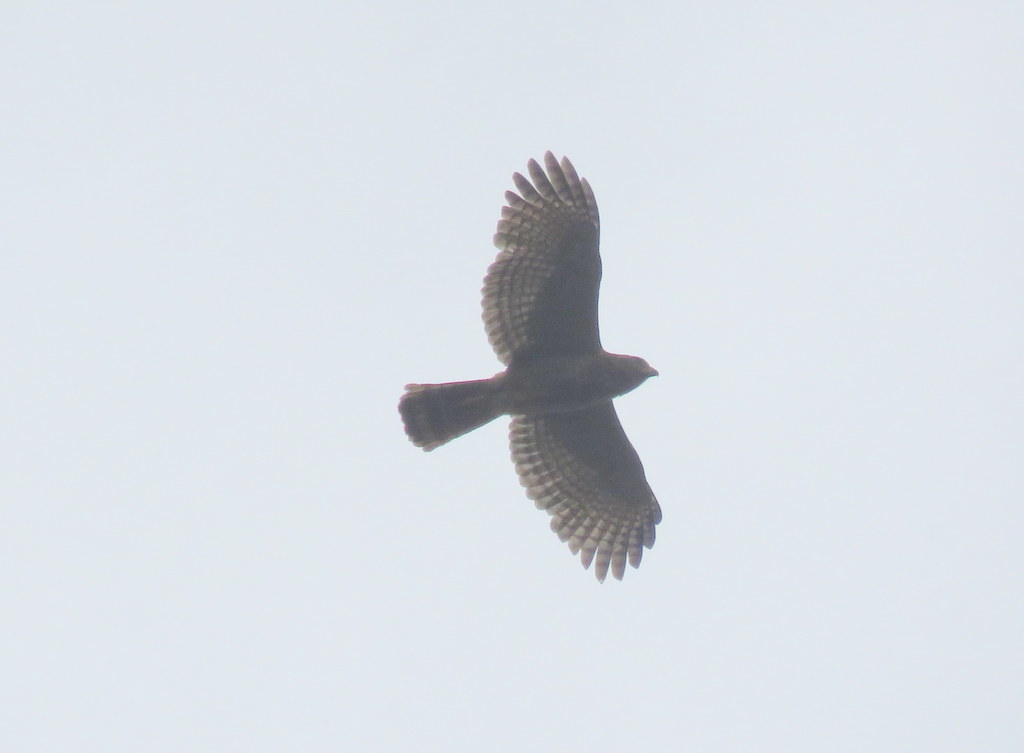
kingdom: Animalia
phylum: Chordata
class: Aves
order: Accipitriformes
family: Accipitridae
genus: Rupornis
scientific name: Rupornis magnirostris
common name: Roadside hawk
